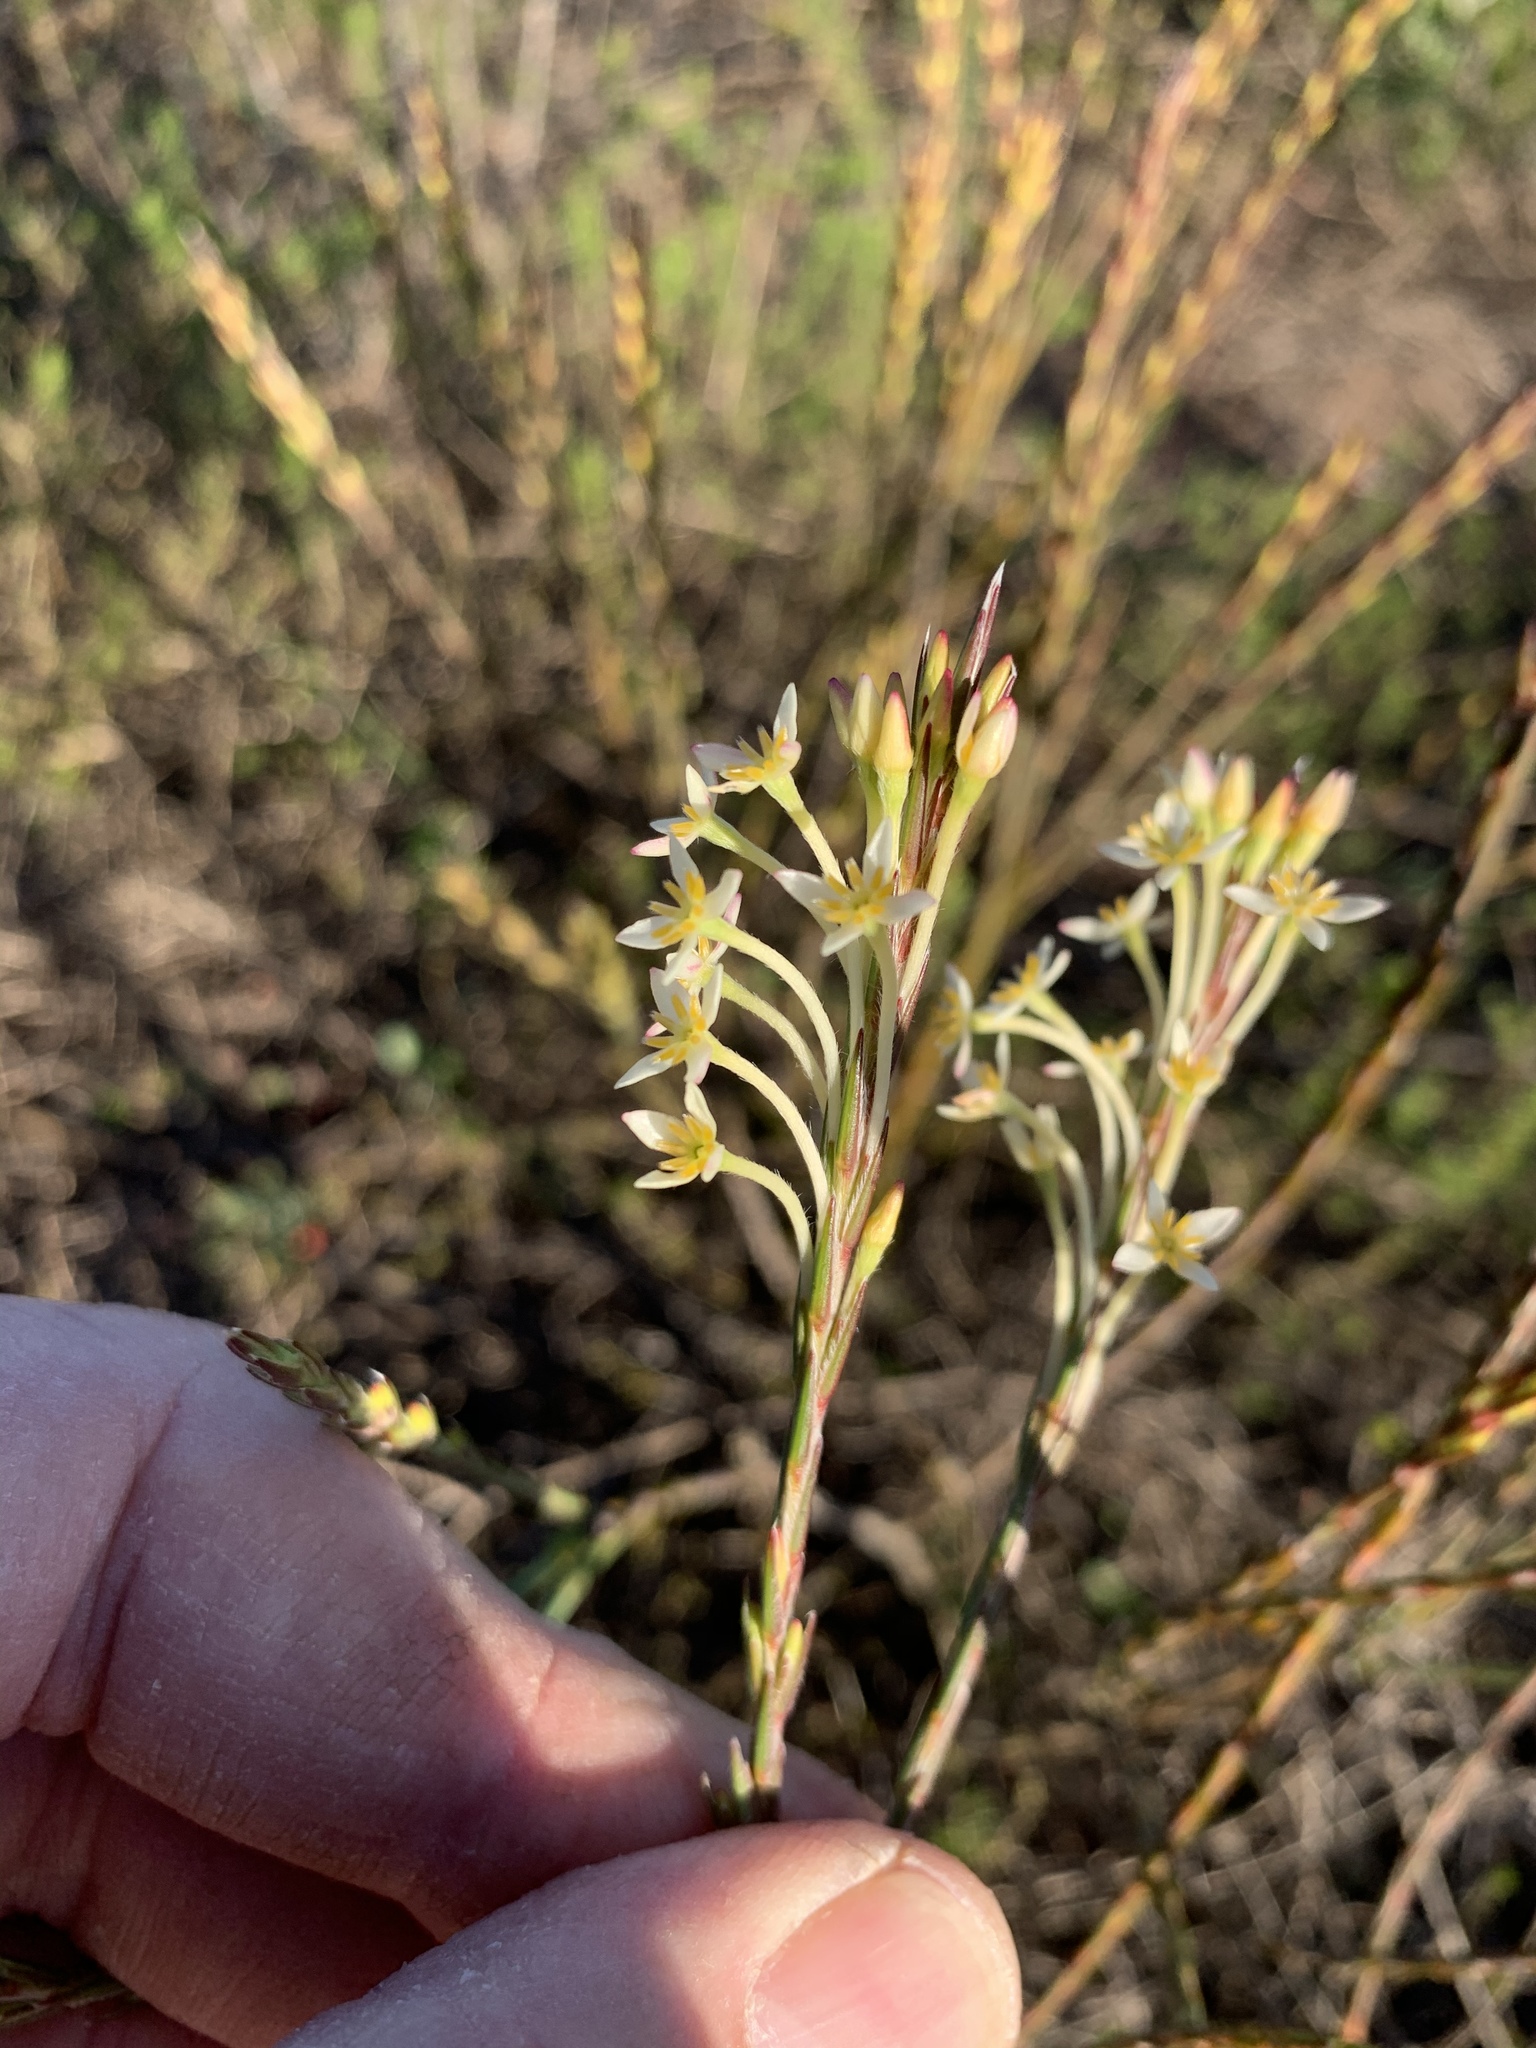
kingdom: Plantae
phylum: Tracheophyta
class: Magnoliopsida
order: Malvales
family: Thymelaeaceae
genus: Struthiola
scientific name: Struthiola ciliata
